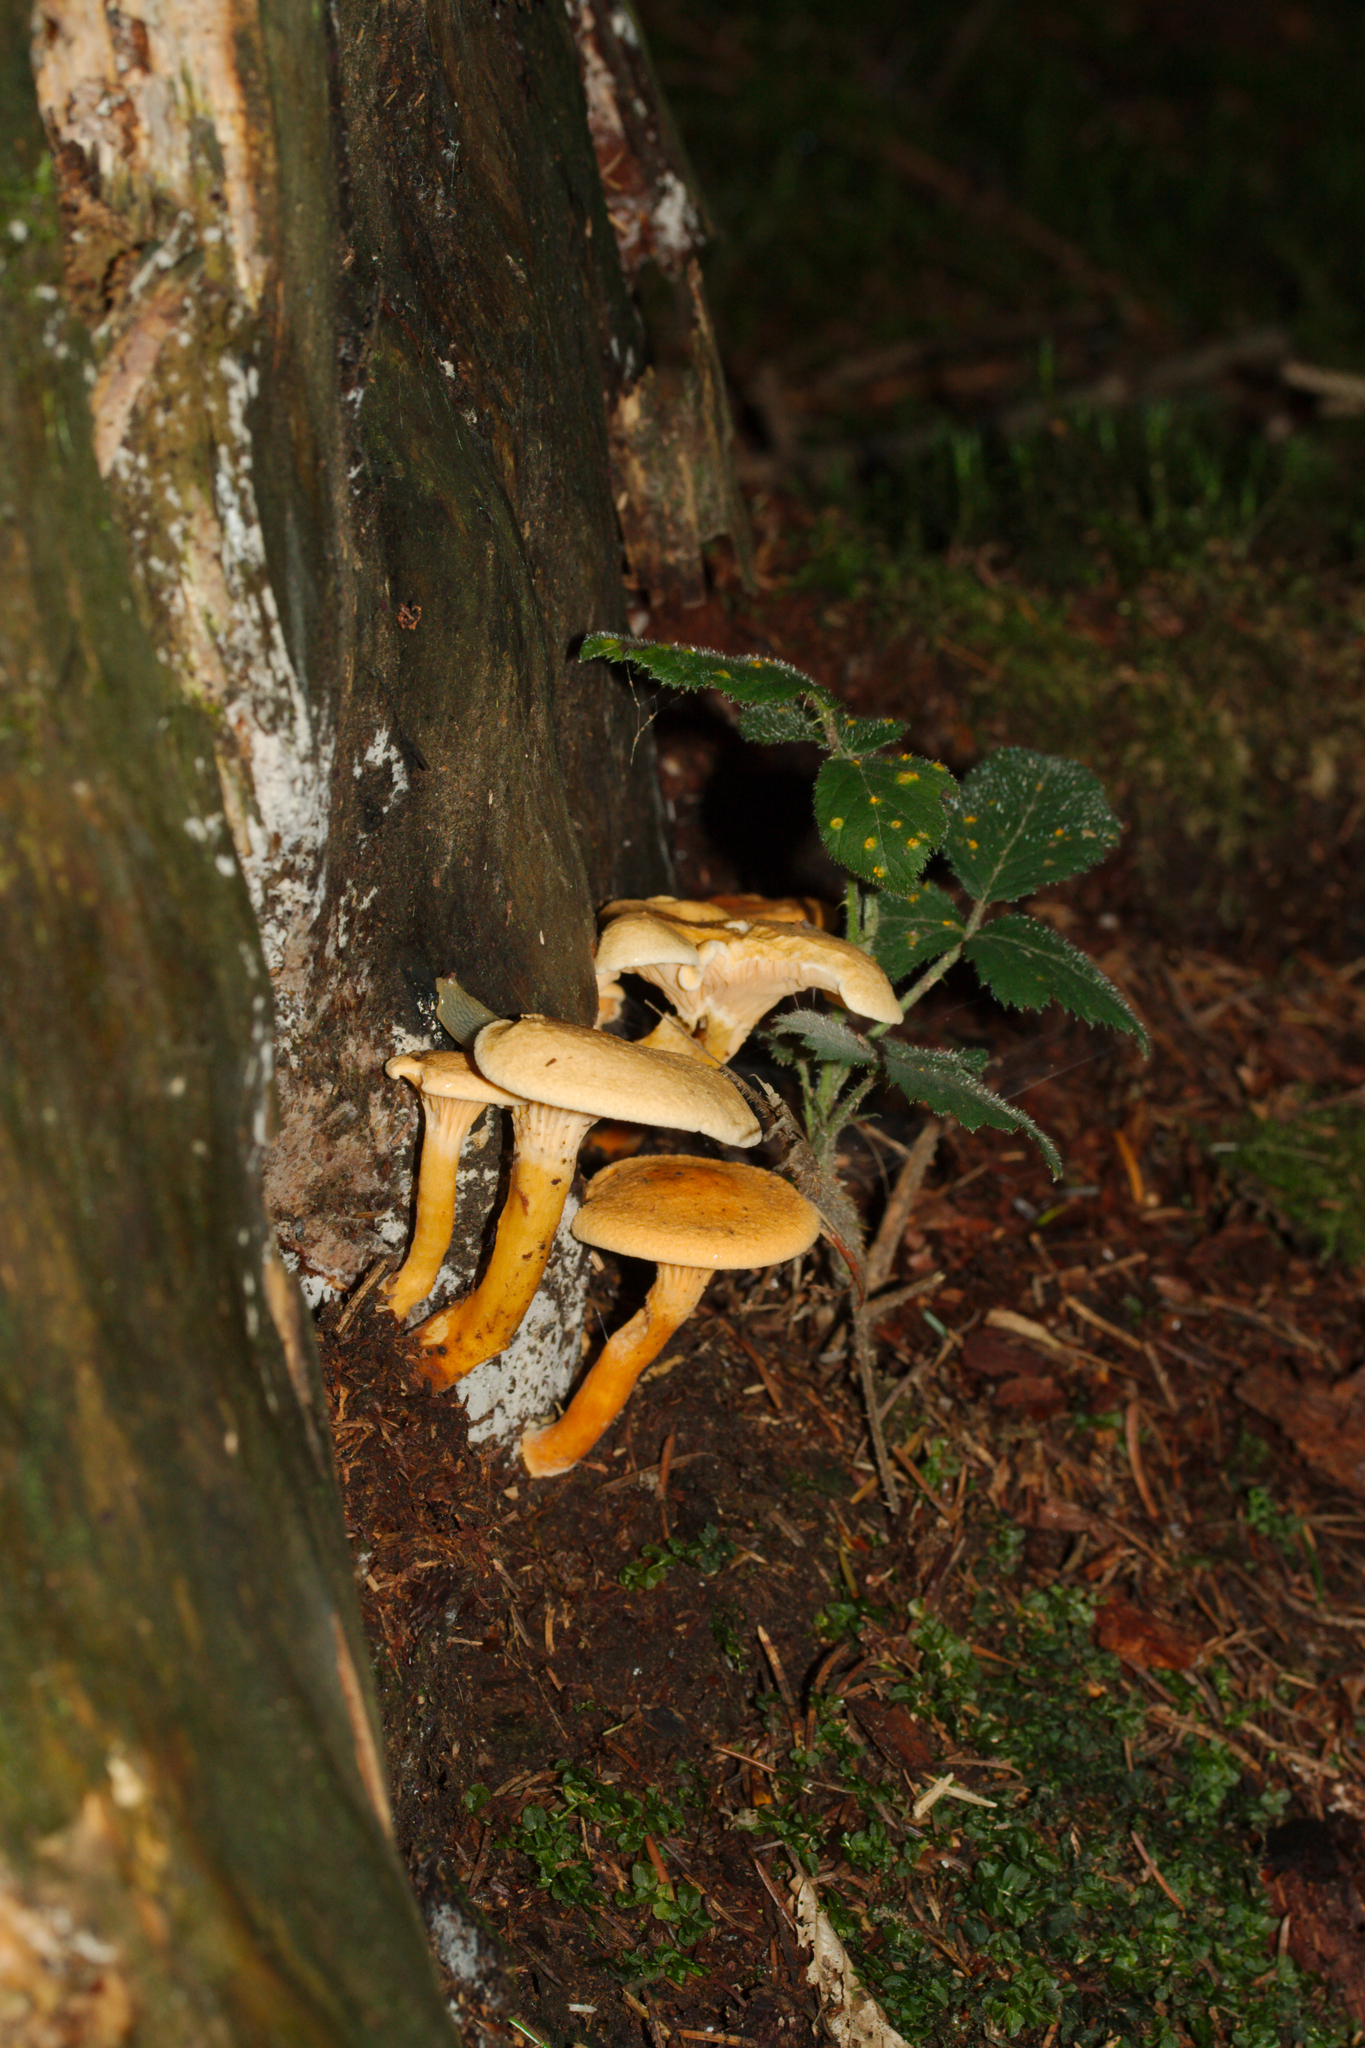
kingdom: Fungi
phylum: Basidiomycota
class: Agaricomycetes
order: Boletales
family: Hygrophoropsidaceae
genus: Hygrophoropsis
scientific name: Hygrophoropsis aurantiaca
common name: False chanterelle
